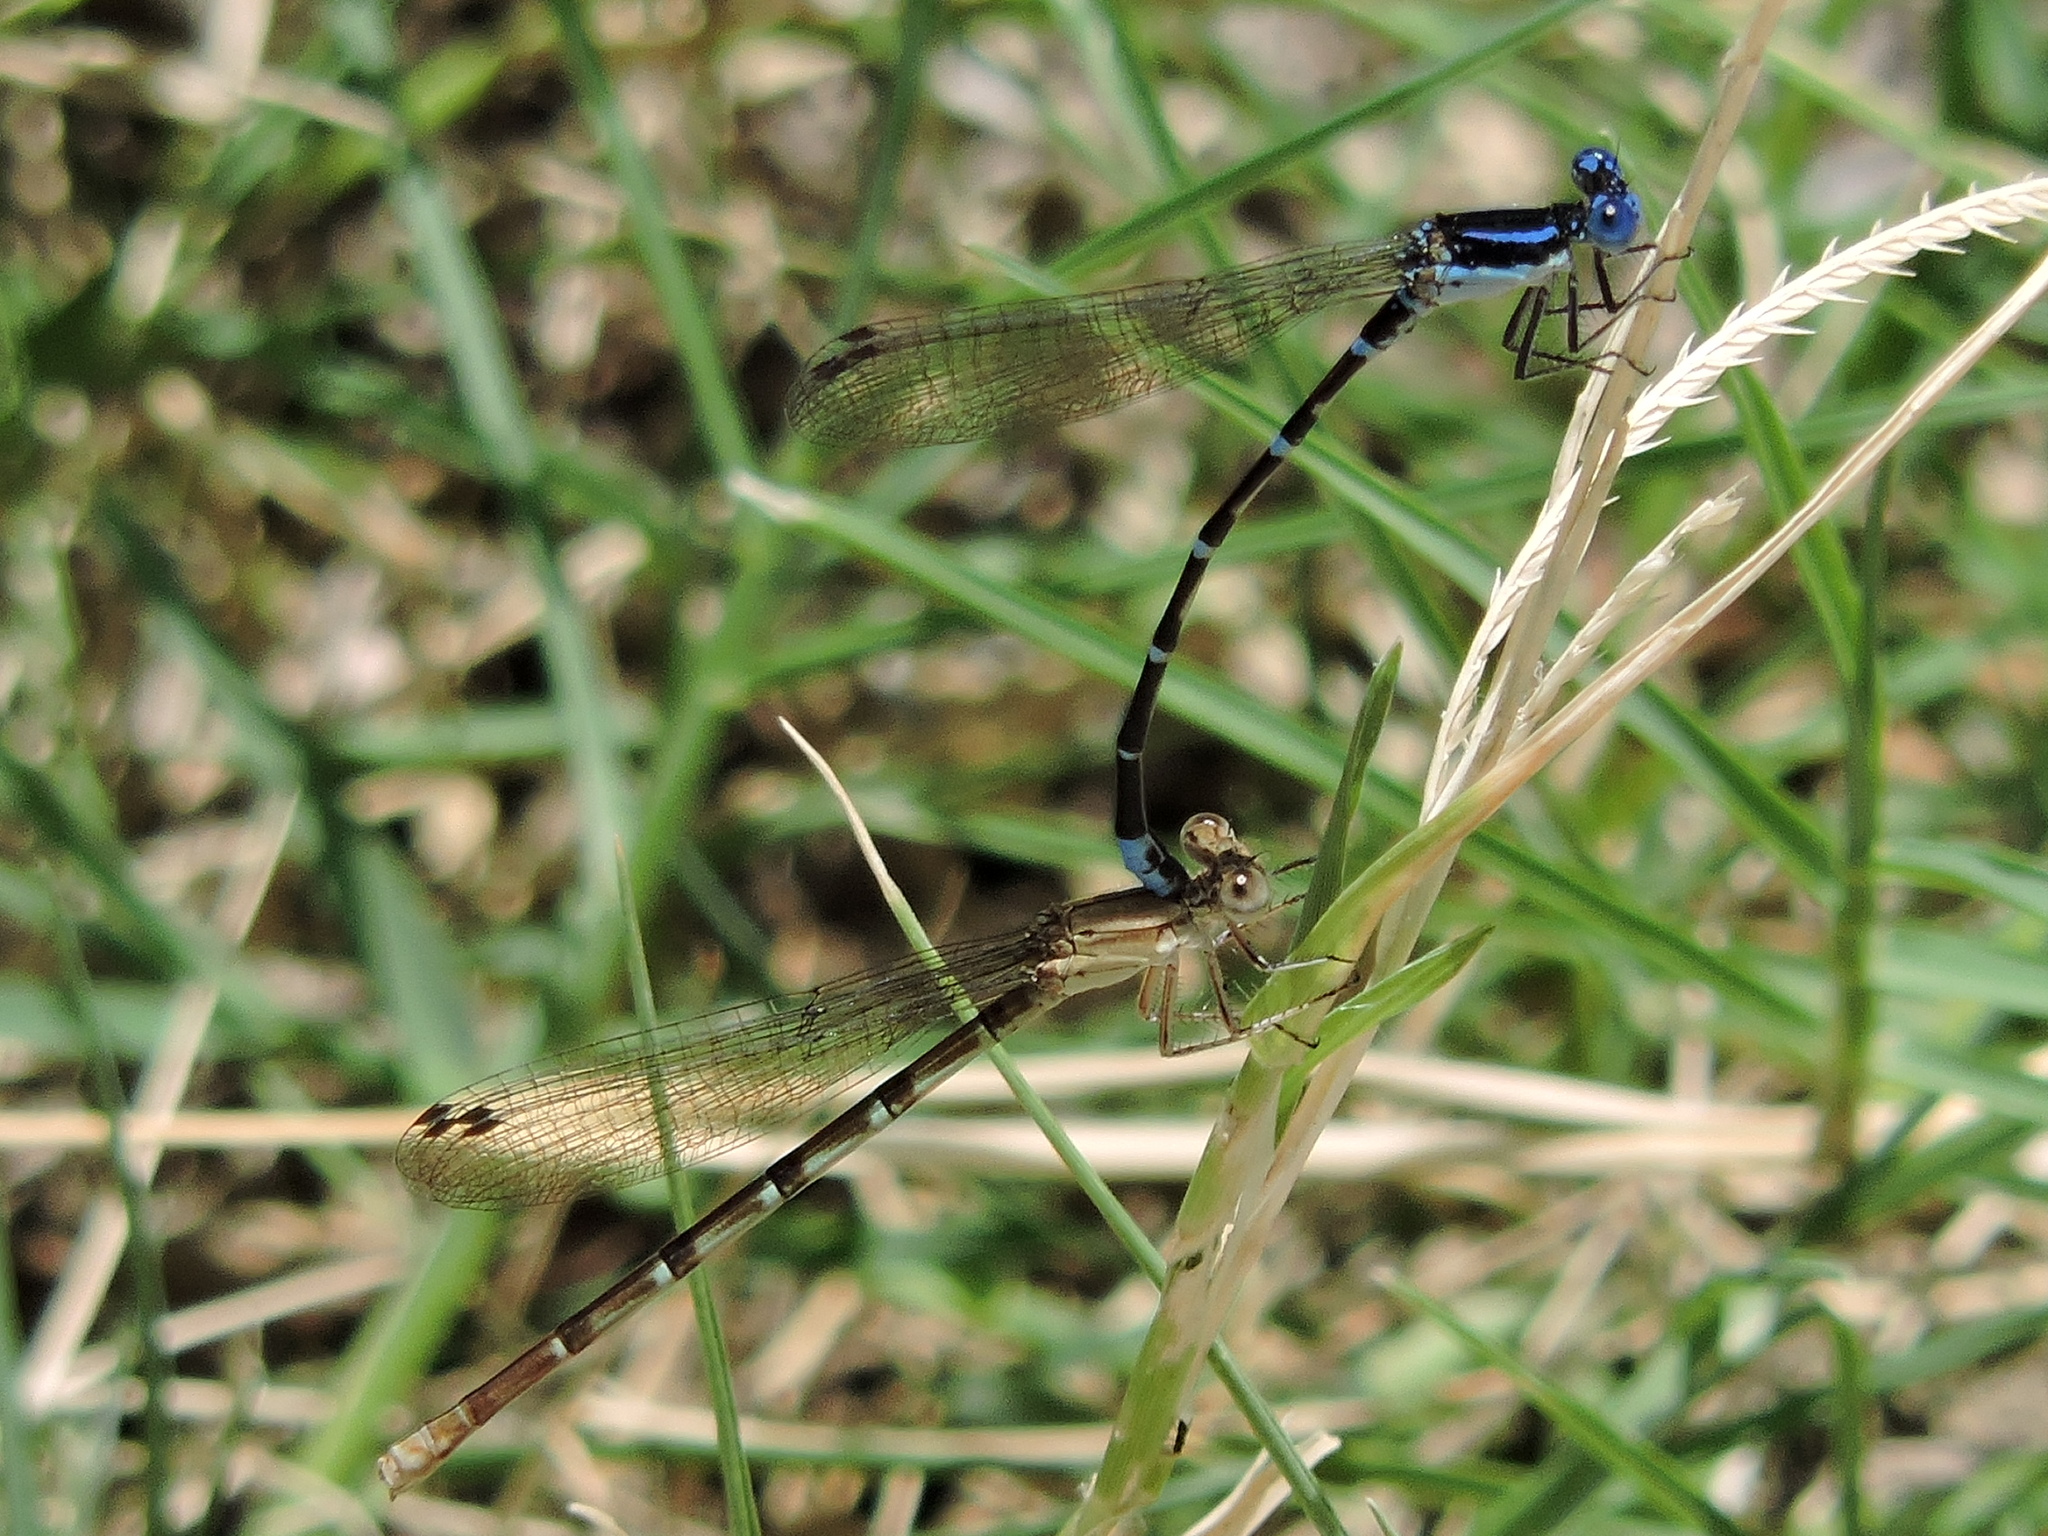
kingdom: Animalia
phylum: Arthropoda
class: Insecta
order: Odonata
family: Coenagrionidae
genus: Argia
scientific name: Argia sedula
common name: Blue-ringed dancer
